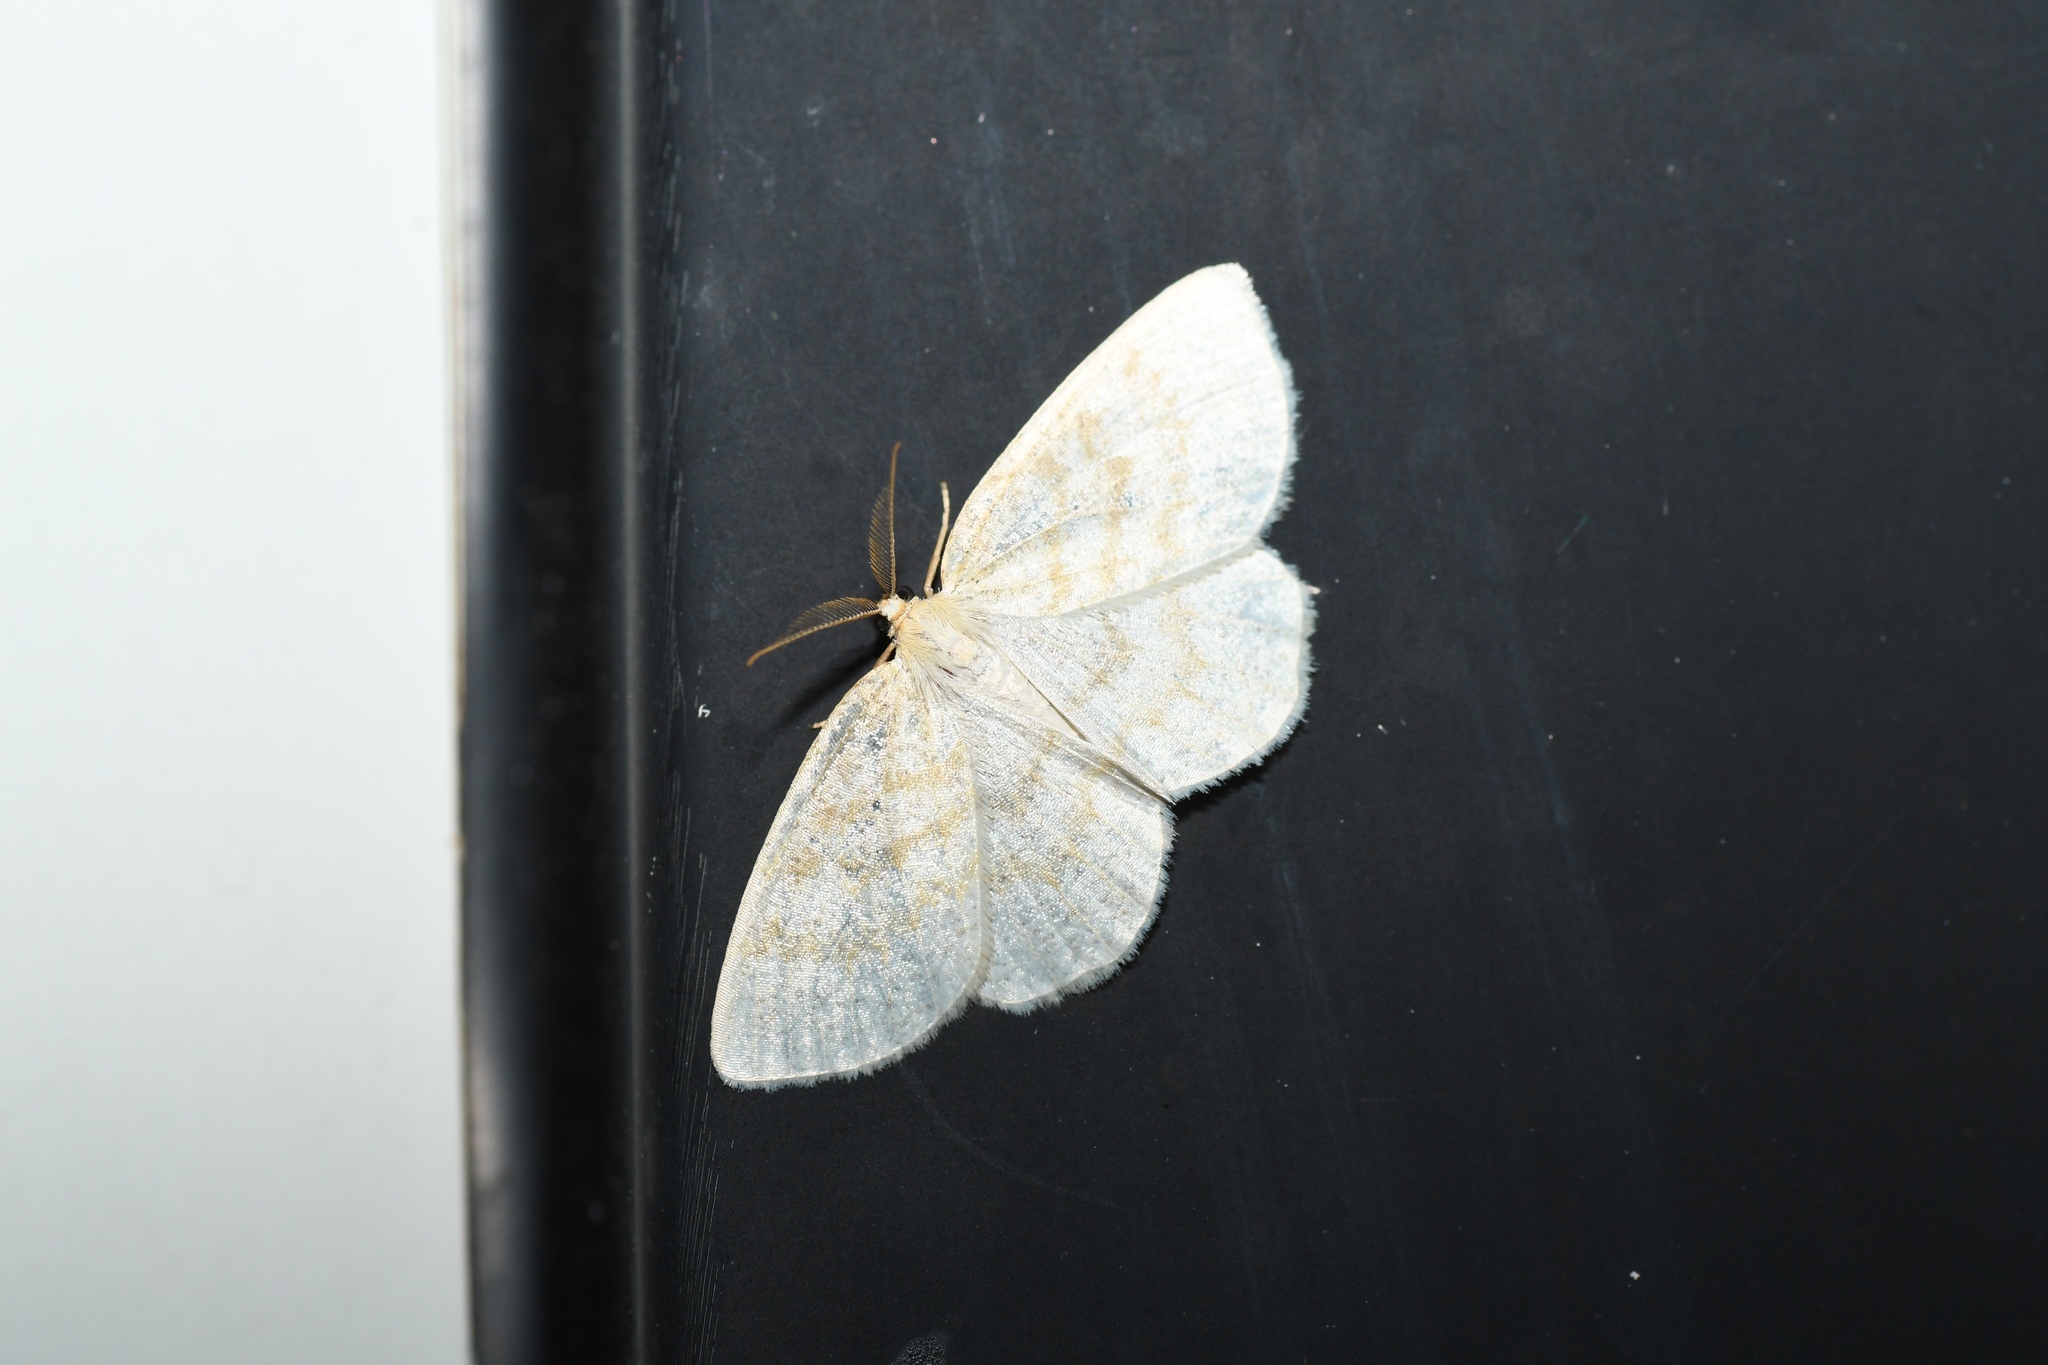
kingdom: Animalia
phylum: Arthropoda
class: Insecta
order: Lepidoptera
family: Geometridae
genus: Cabera
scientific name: Cabera erythemaria
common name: Yellow-dusted cream moth
